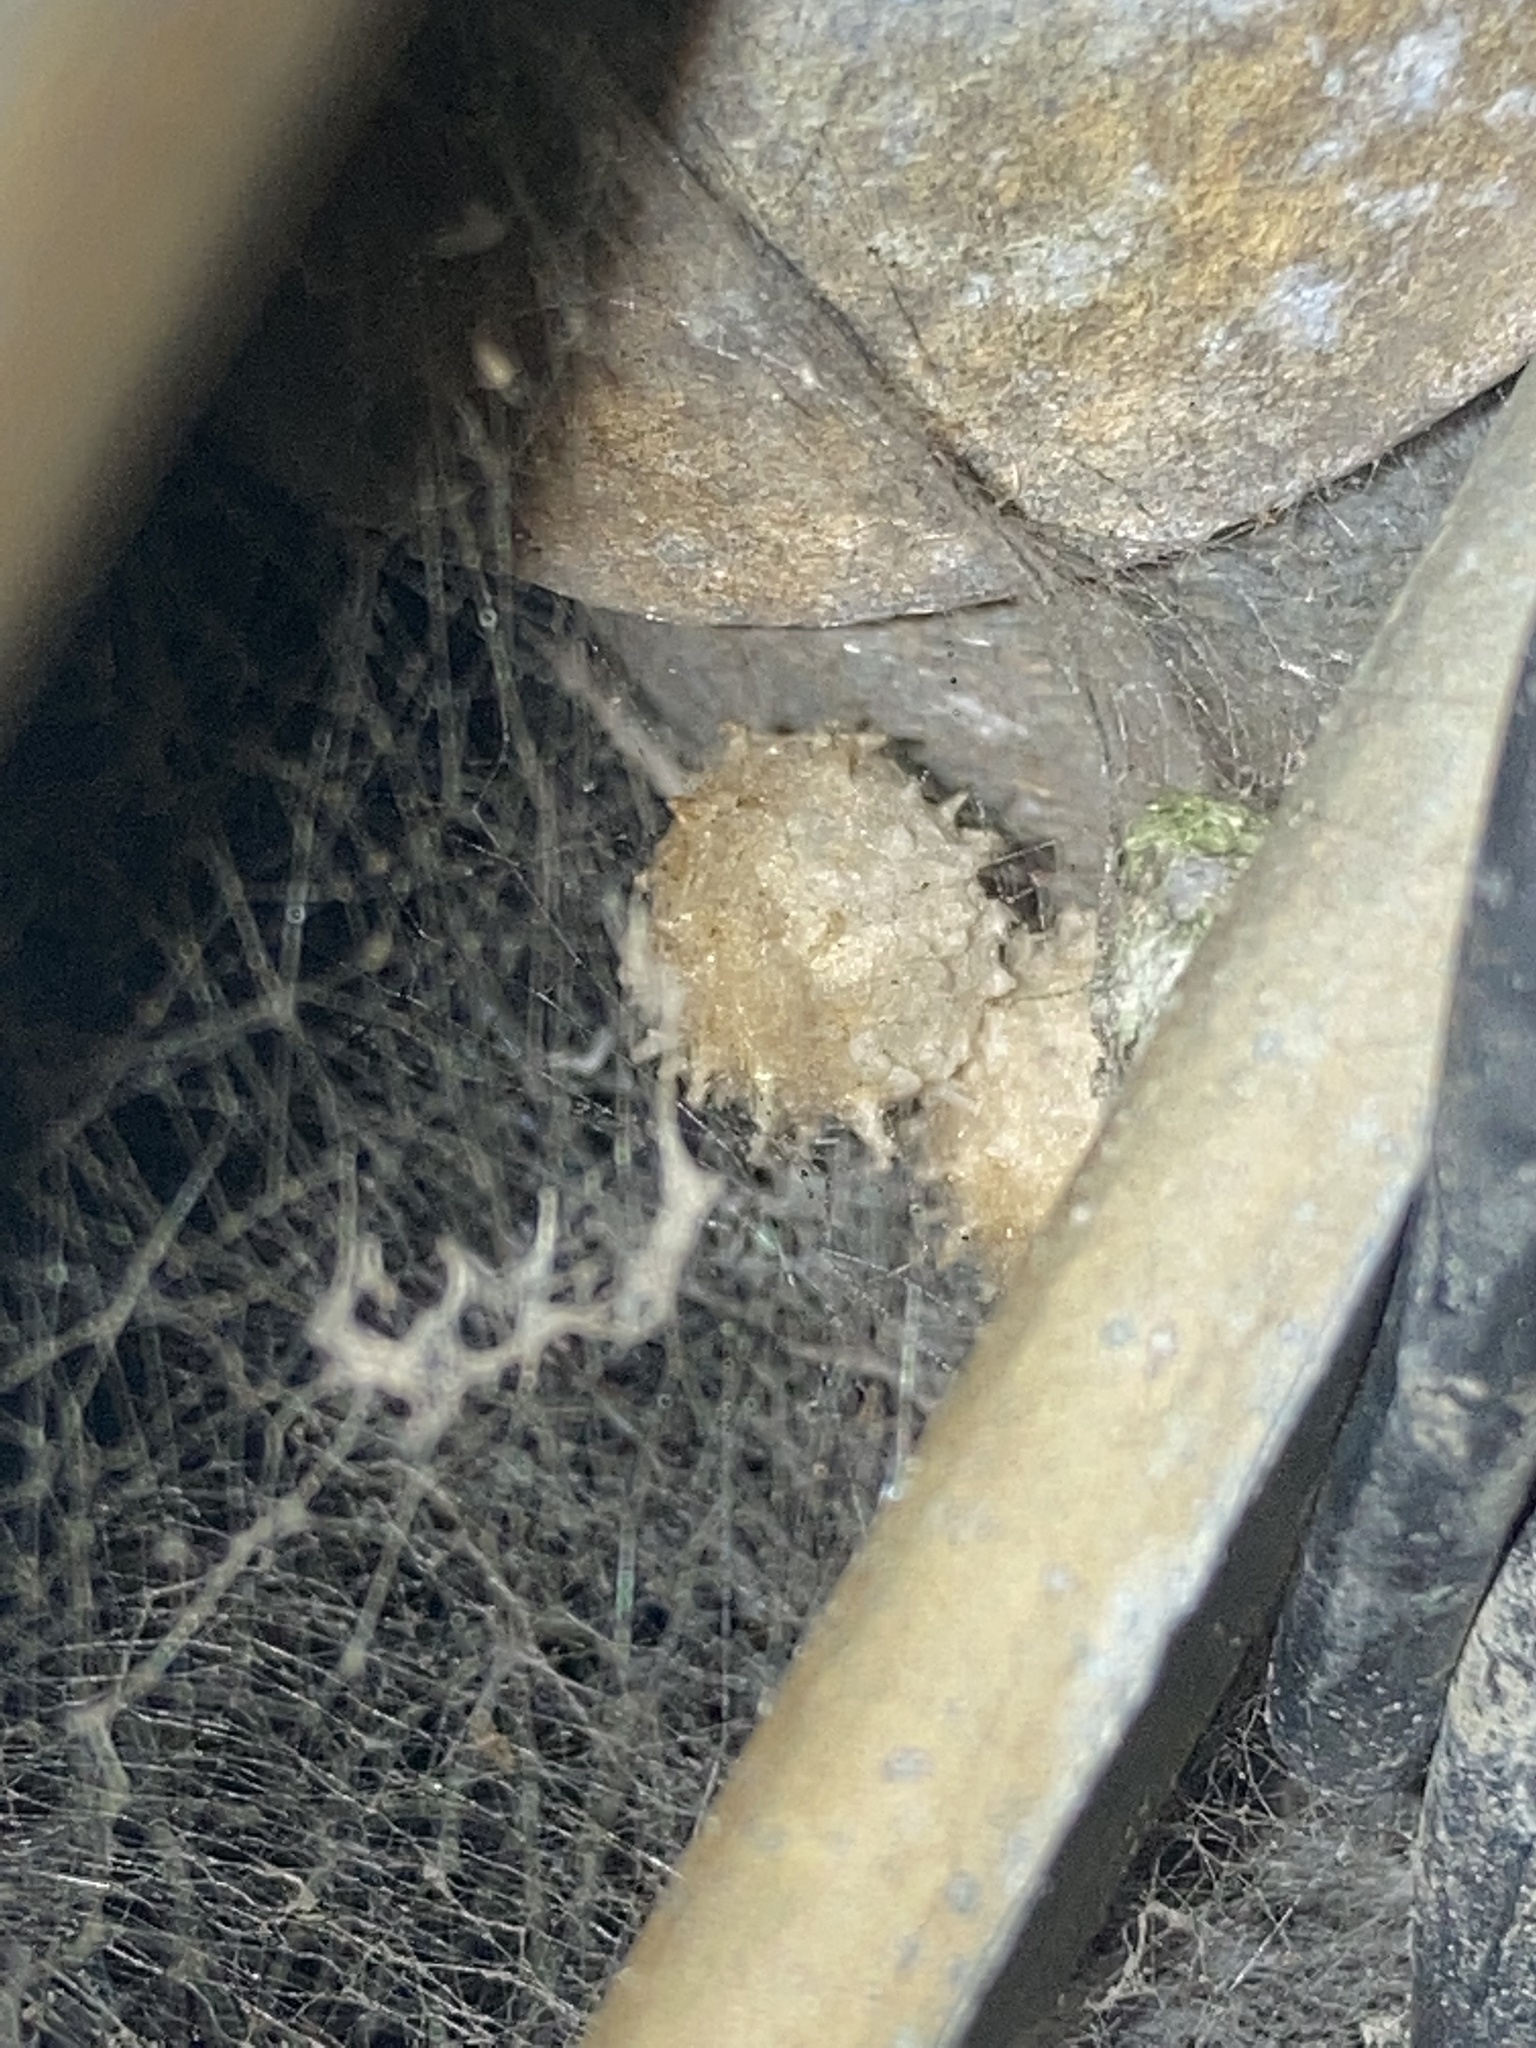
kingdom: Animalia
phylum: Arthropoda
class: Arachnida
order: Araneae
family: Theridiidae
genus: Latrodectus
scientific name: Latrodectus geometricus
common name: Brown widow spider
